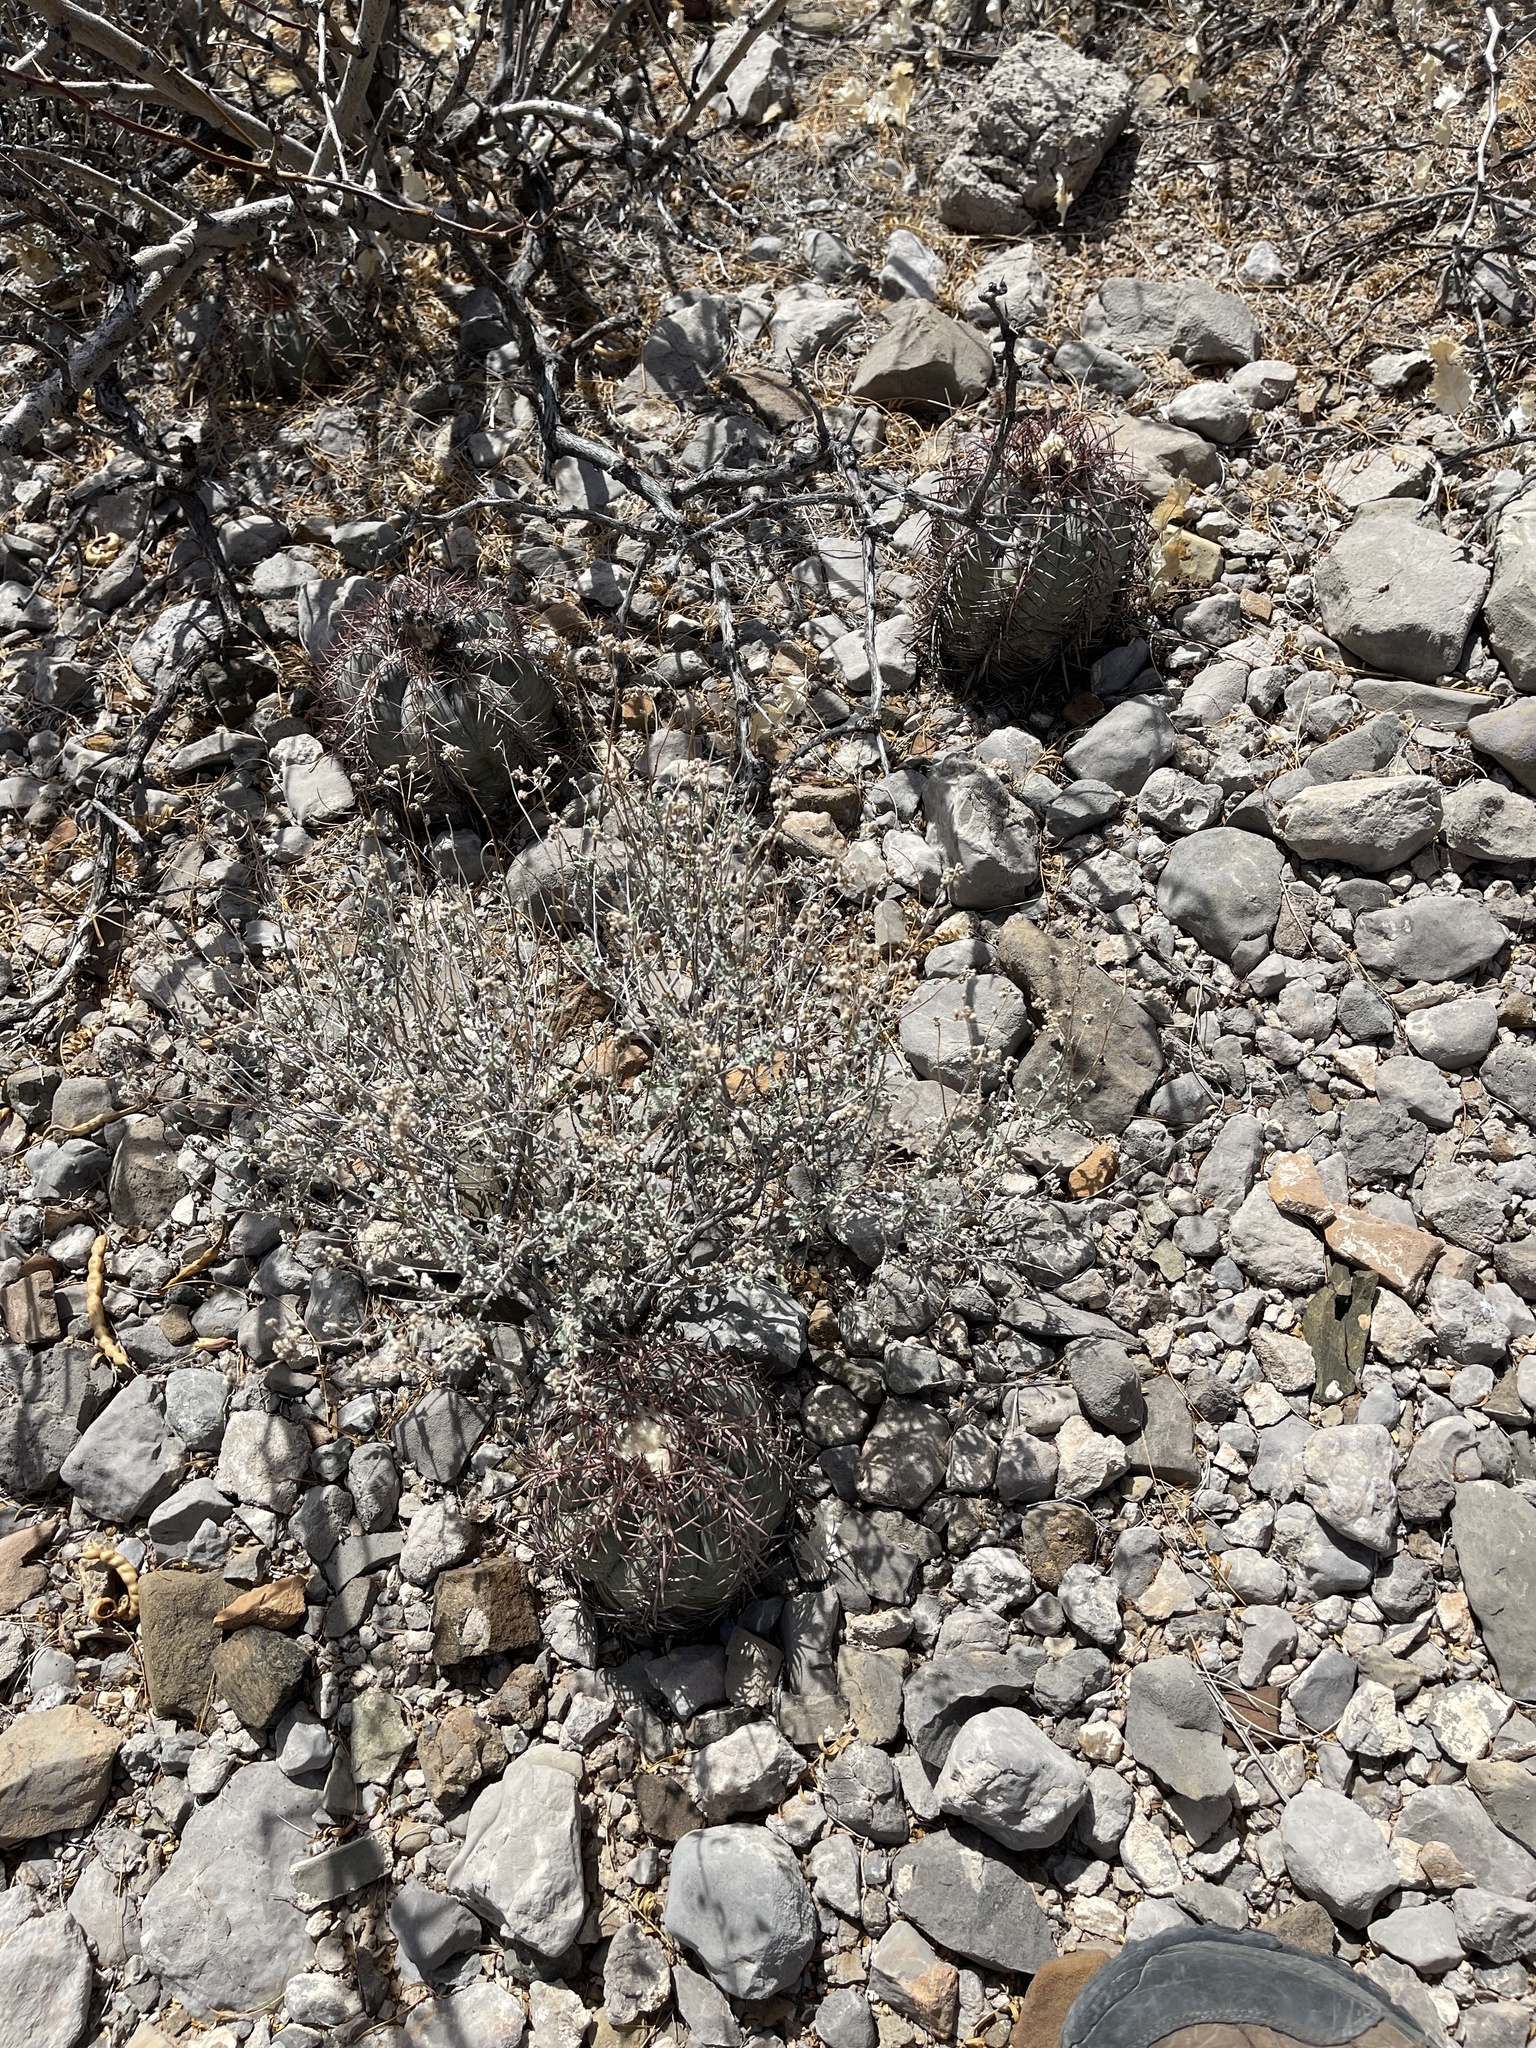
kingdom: Plantae
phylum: Tracheophyta
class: Magnoliopsida
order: Caryophyllales
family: Cactaceae
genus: Echinocactus
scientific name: Echinocactus horizonthalonius
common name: Devilshead
